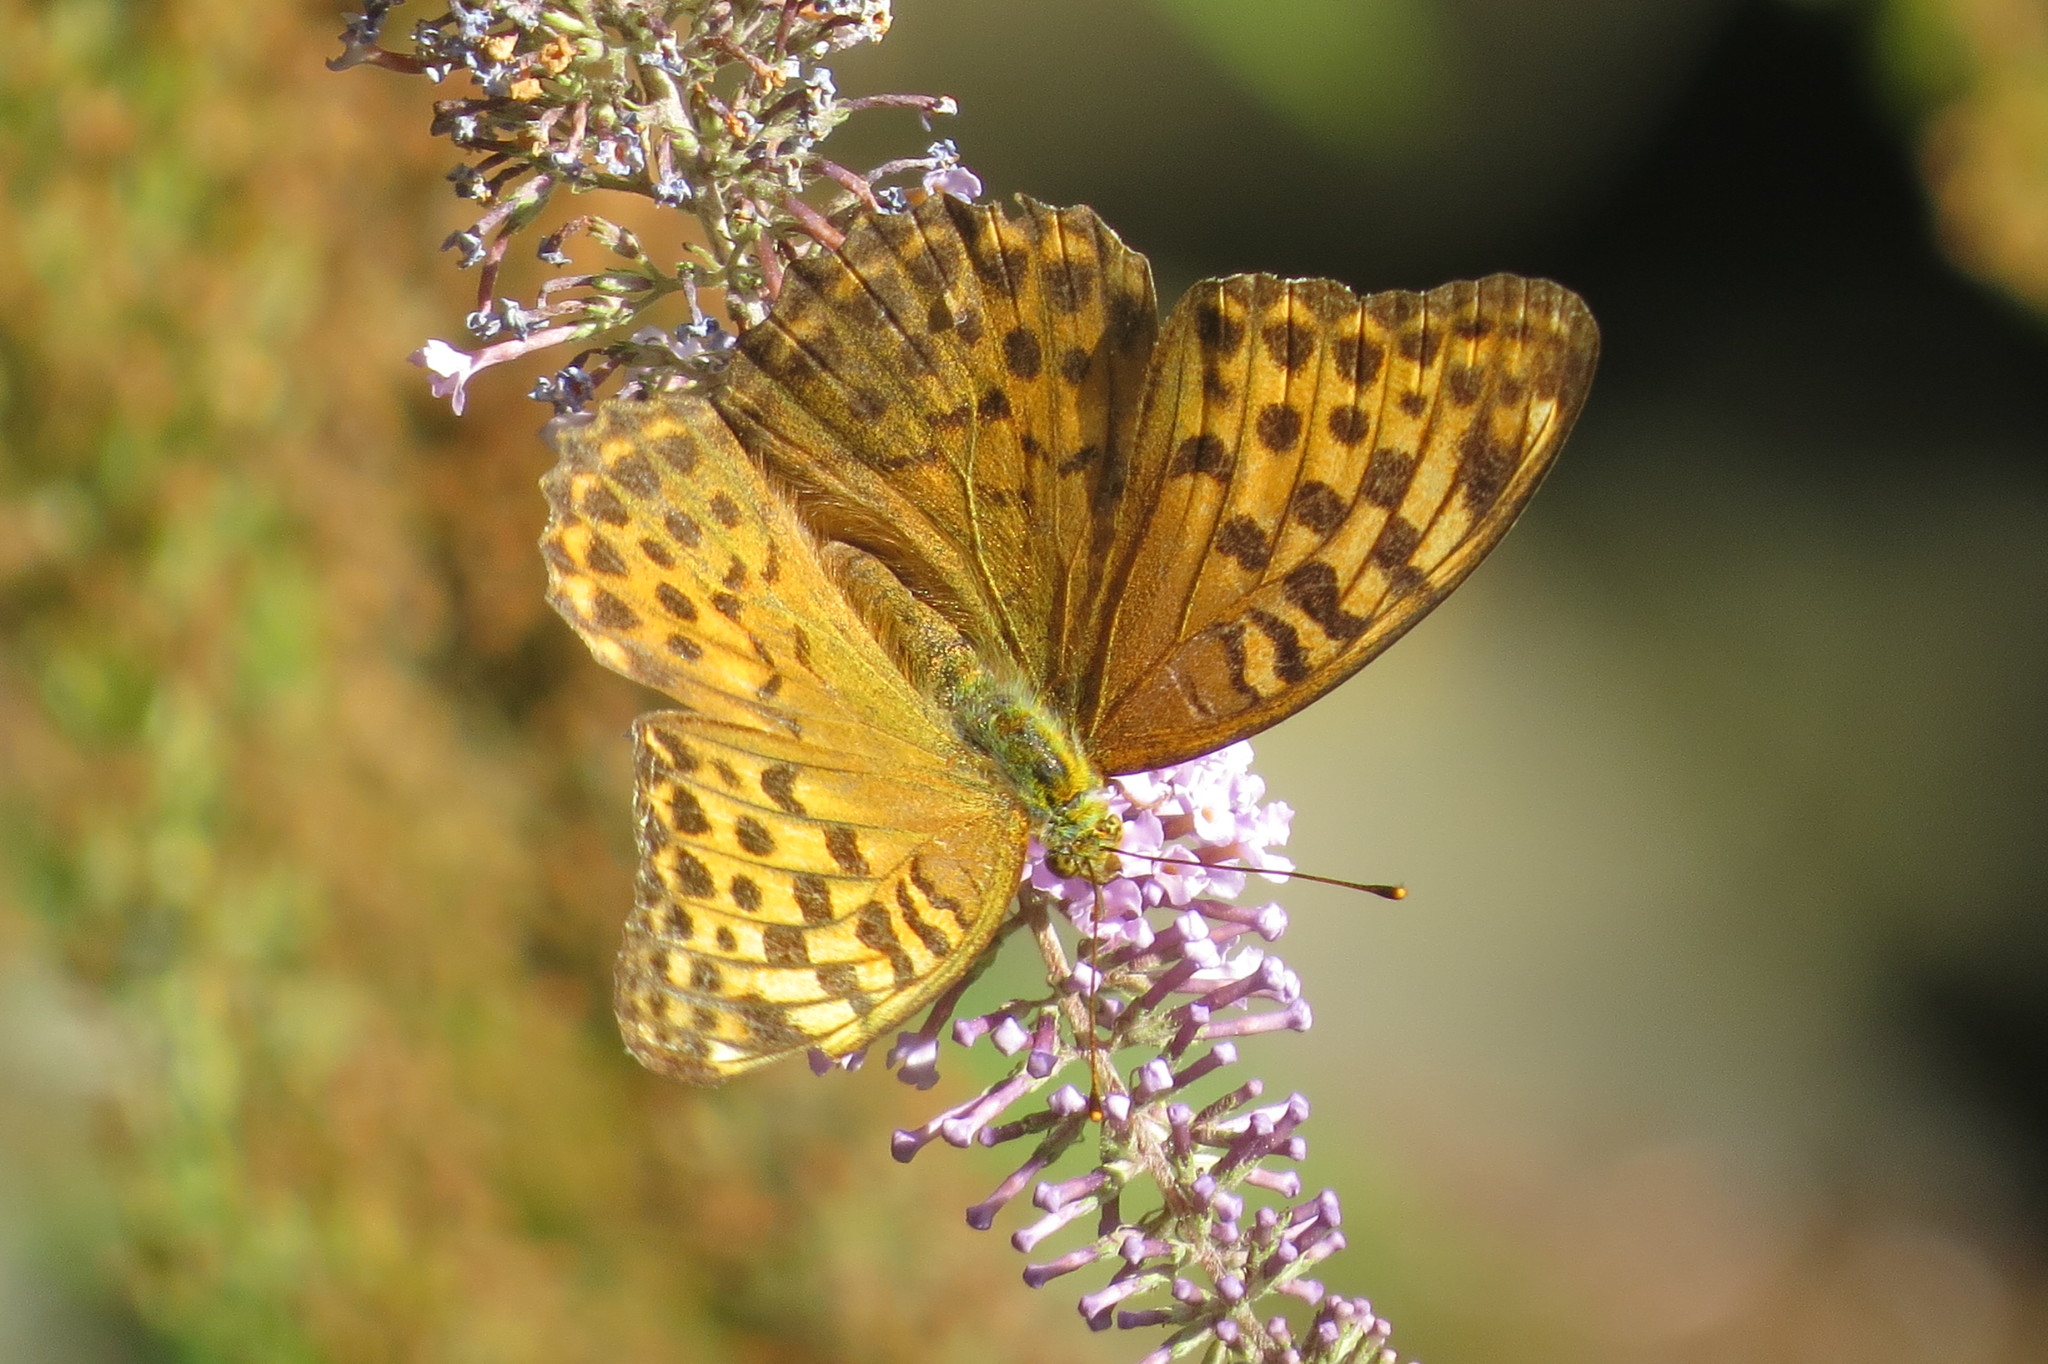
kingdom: Animalia
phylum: Arthropoda
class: Insecta
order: Lepidoptera
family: Nymphalidae
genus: Argynnis
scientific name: Argynnis paphia
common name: Silver-washed fritillary
